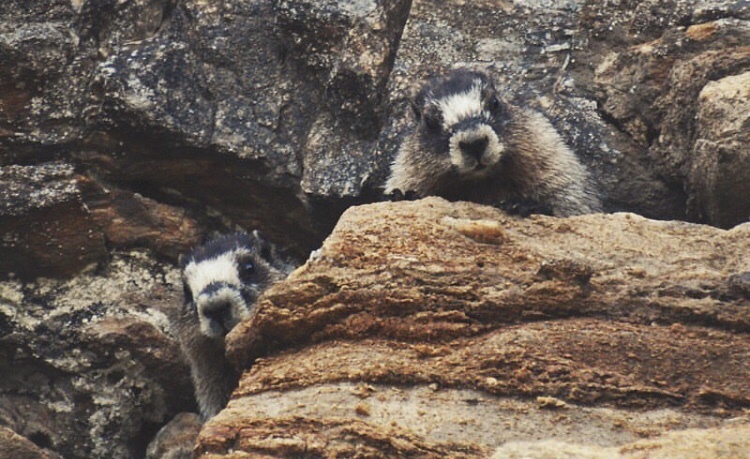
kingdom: Animalia
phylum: Chordata
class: Mammalia
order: Rodentia
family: Sciuridae
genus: Marmota
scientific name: Marmota caligata
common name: Hoary marmot
